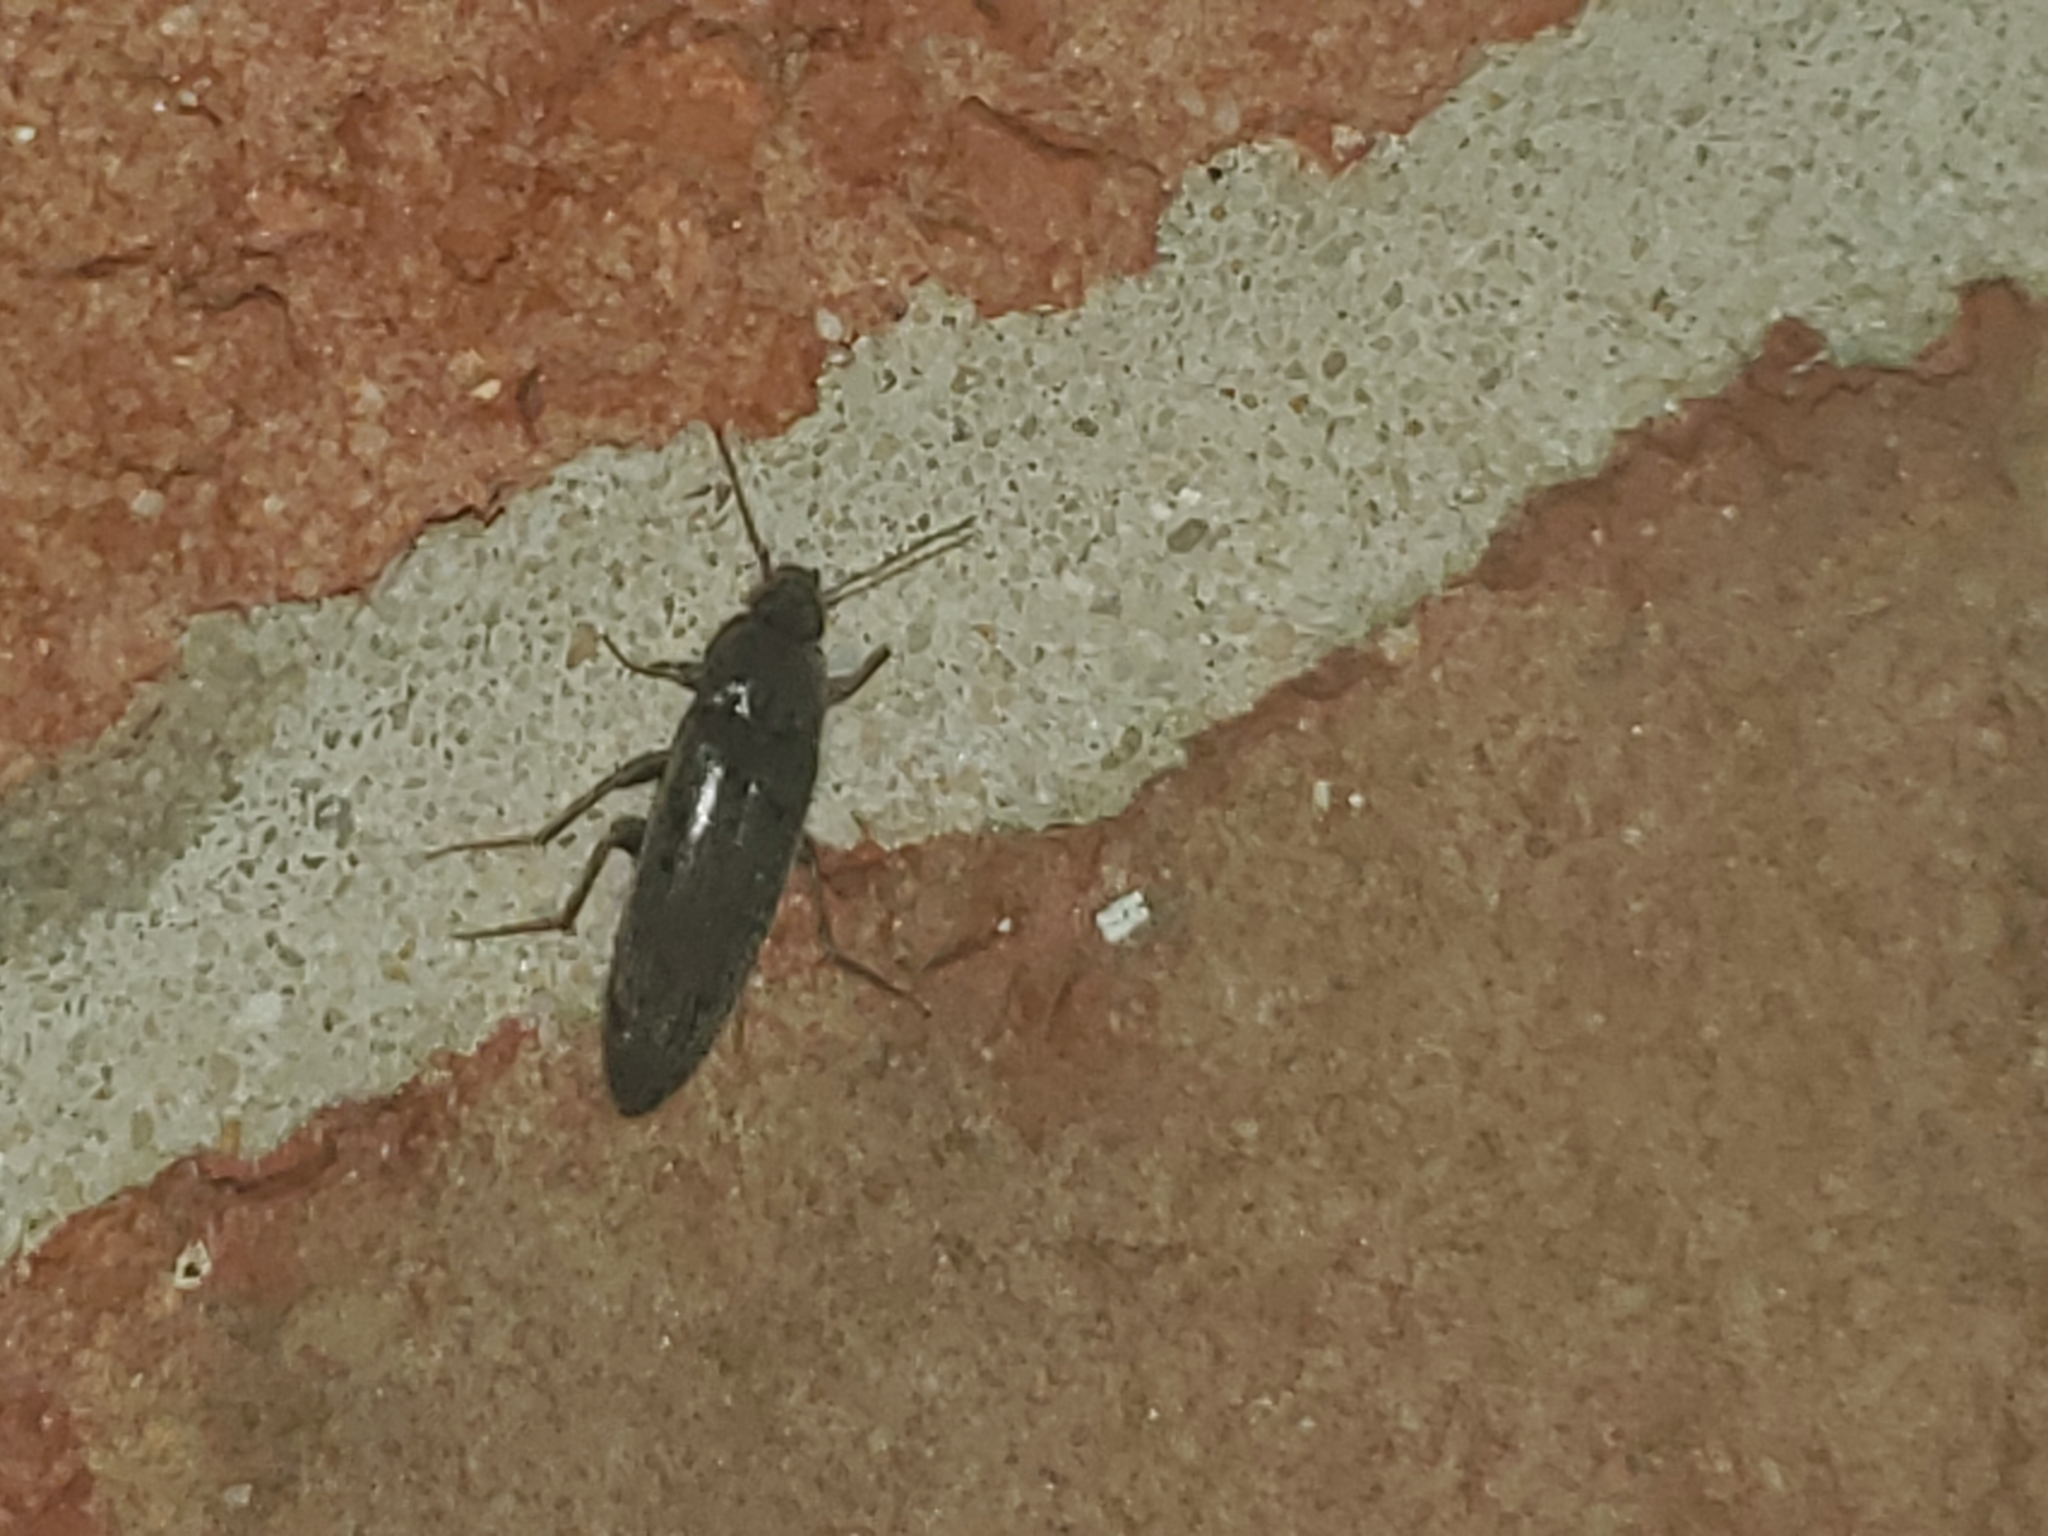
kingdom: Animalia
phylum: Arthropoda
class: Insecta
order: Coleoptera
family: Synchroidae
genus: Synchroa
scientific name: Synchroa punctata
